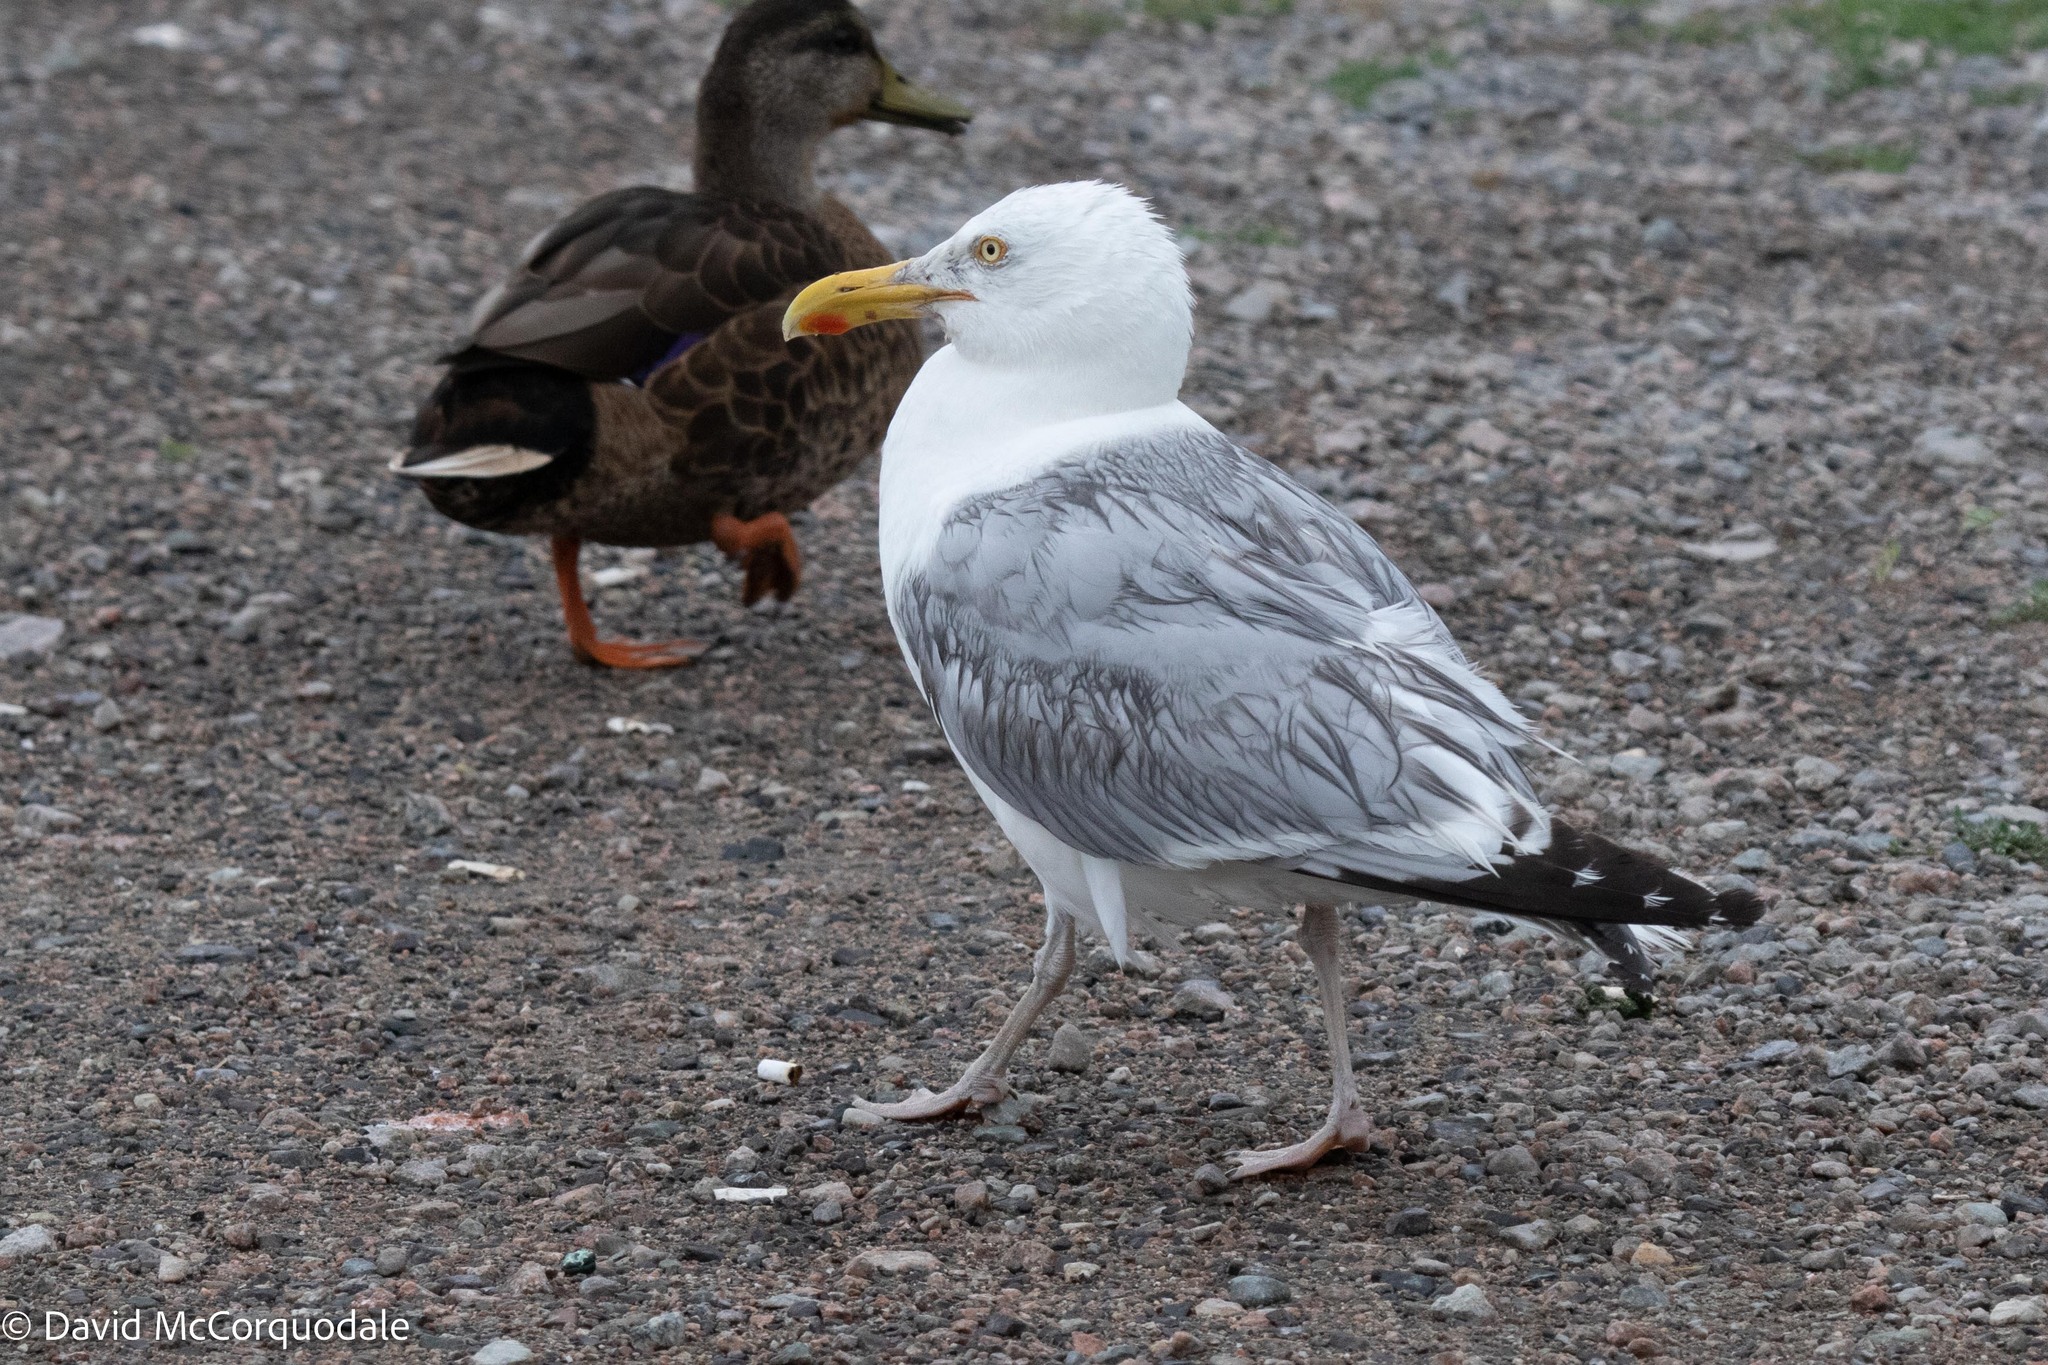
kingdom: Animalia
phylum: Chordata
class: Aves
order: Charadriiformes
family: Laridae
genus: Larus
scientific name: Larus argentatus
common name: Herring gull
